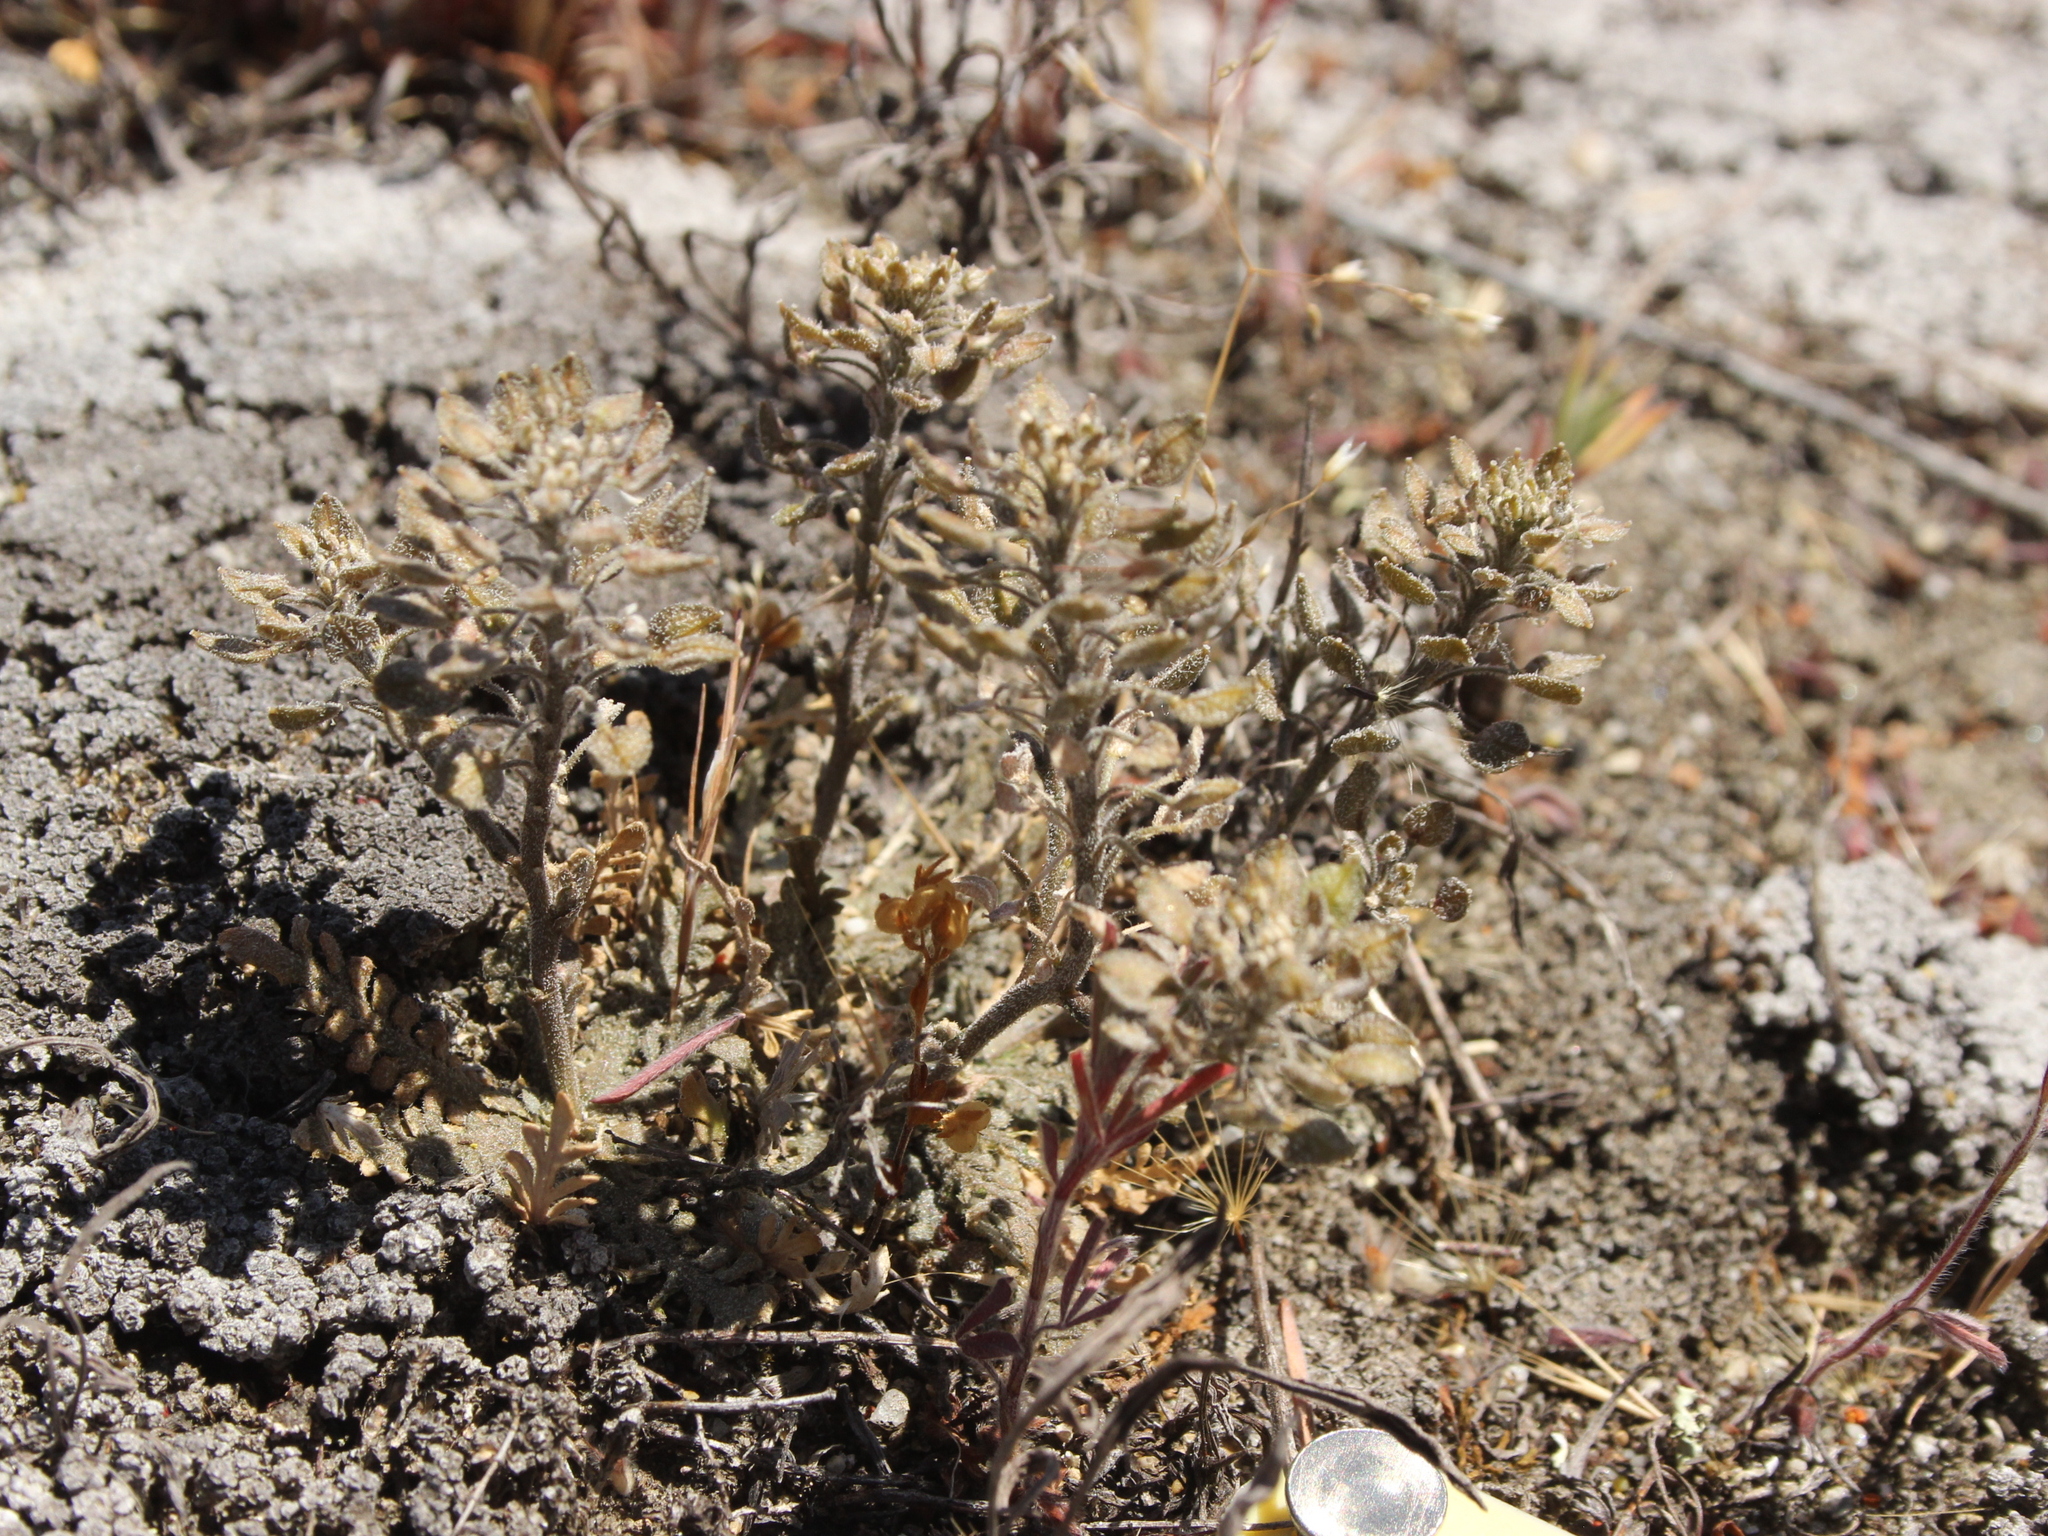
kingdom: Plantae
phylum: Tracheophyta
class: Magnoliopsida
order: Brassicales
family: Brassicaceae
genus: Lepidium
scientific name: Lepidium sisymbrioides
